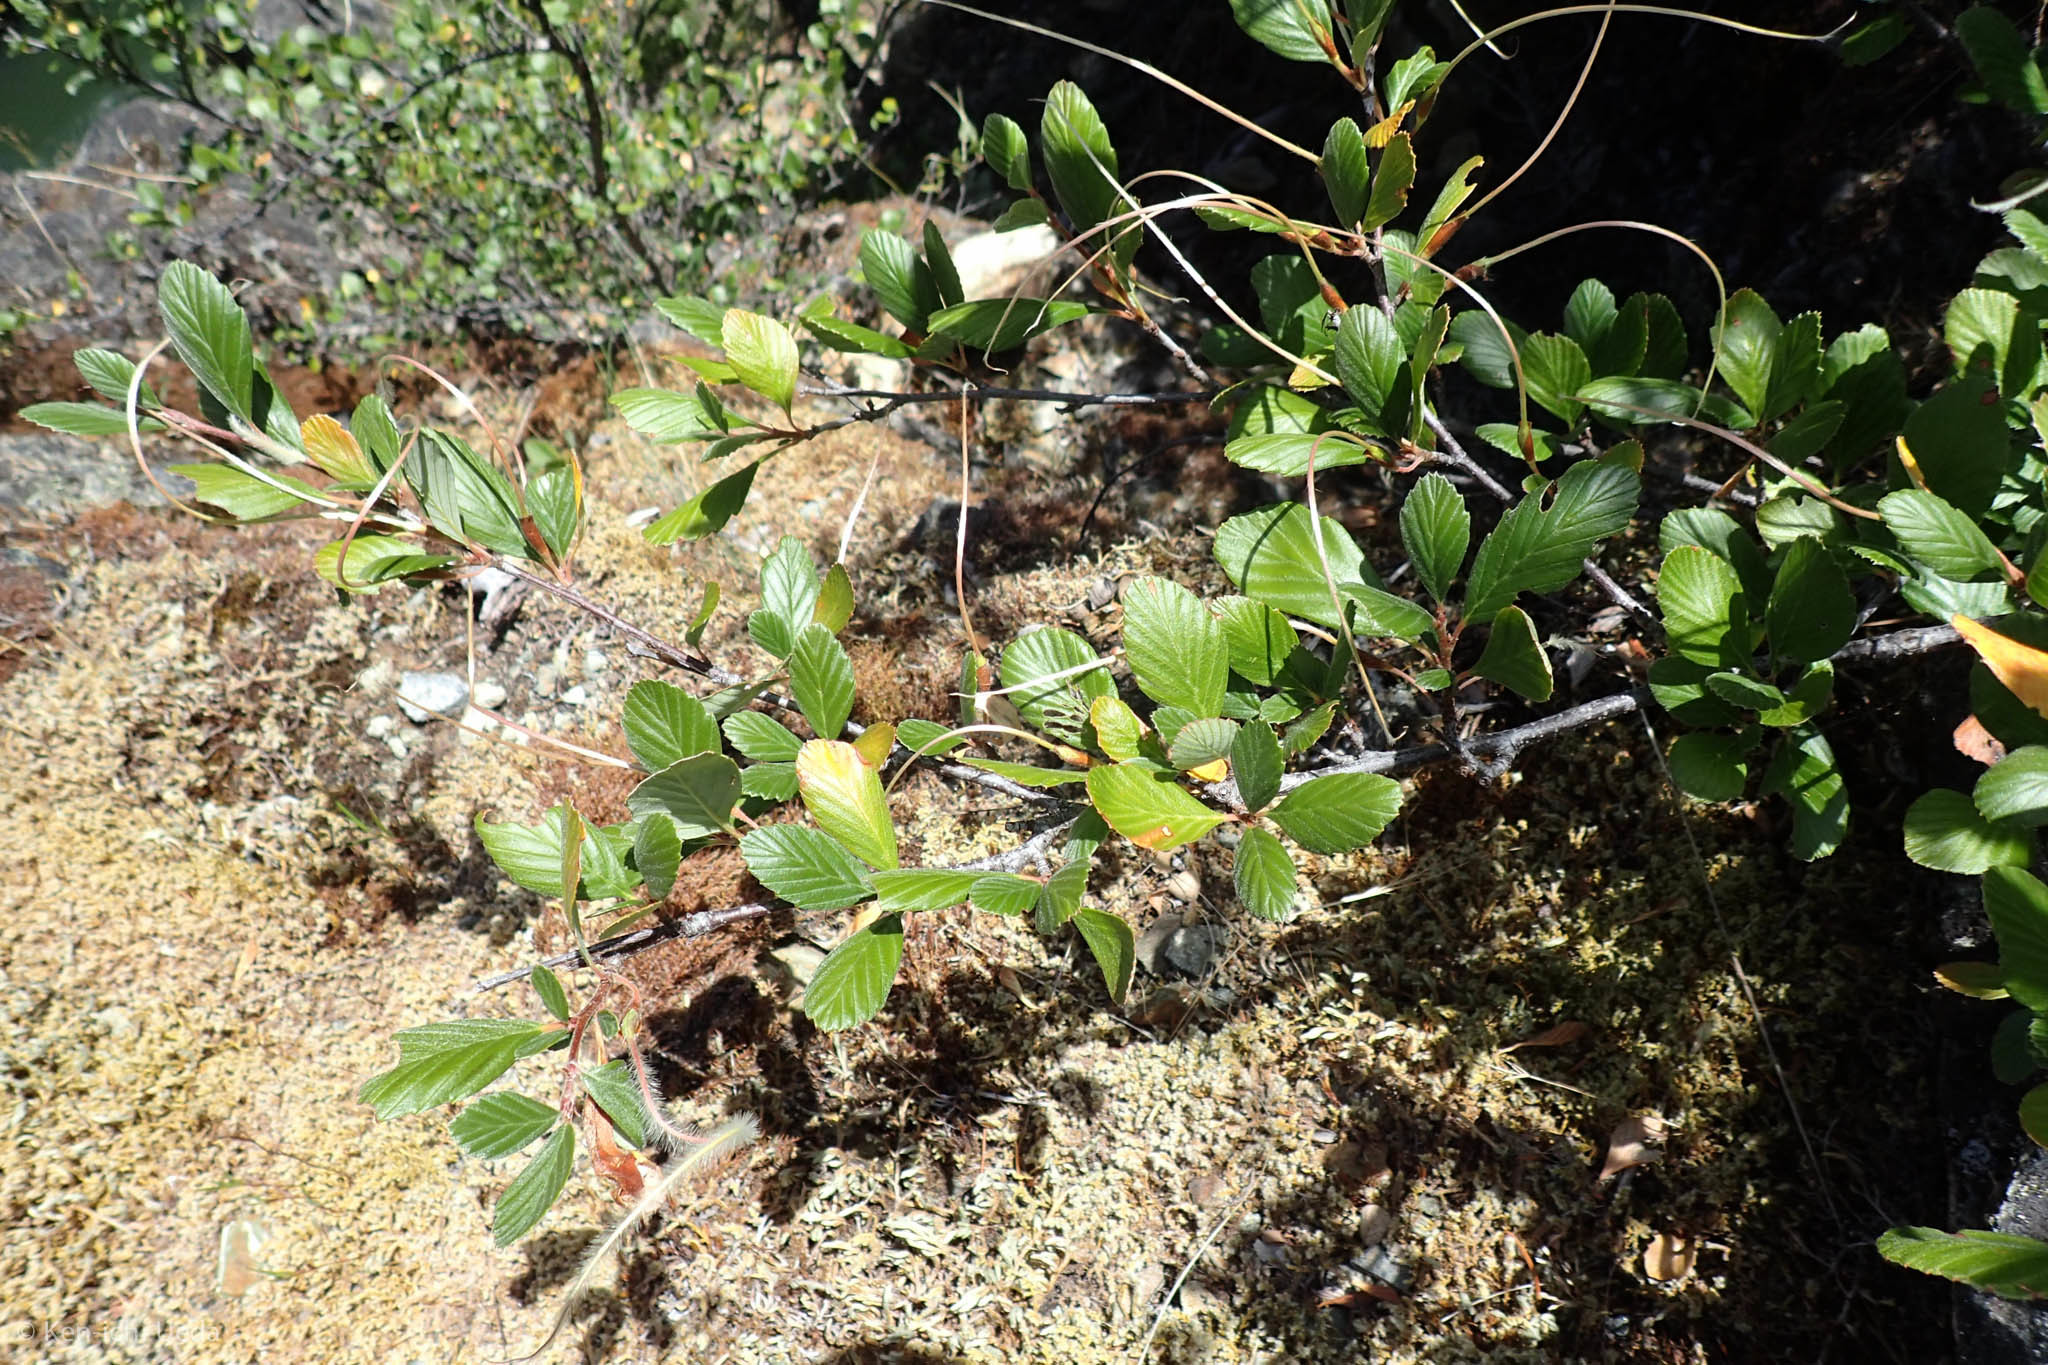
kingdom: Plantae
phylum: Tracheophyta
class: Magnoliopsida
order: Rosales
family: Rosaceae
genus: Cercocarpus
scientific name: Cercocarpus betuloides
